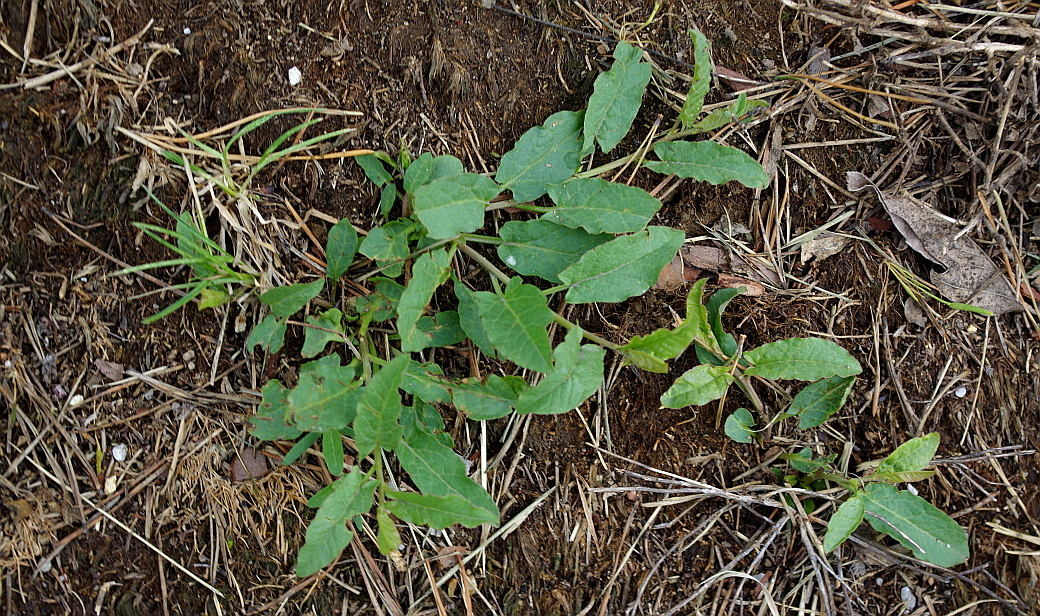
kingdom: Plantae
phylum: Tracheophyta
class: Magnoliopsida
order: Solanales
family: Convolvulaceae
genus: Convolvulus
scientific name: Convolvulus arvensis
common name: Field bindweed
